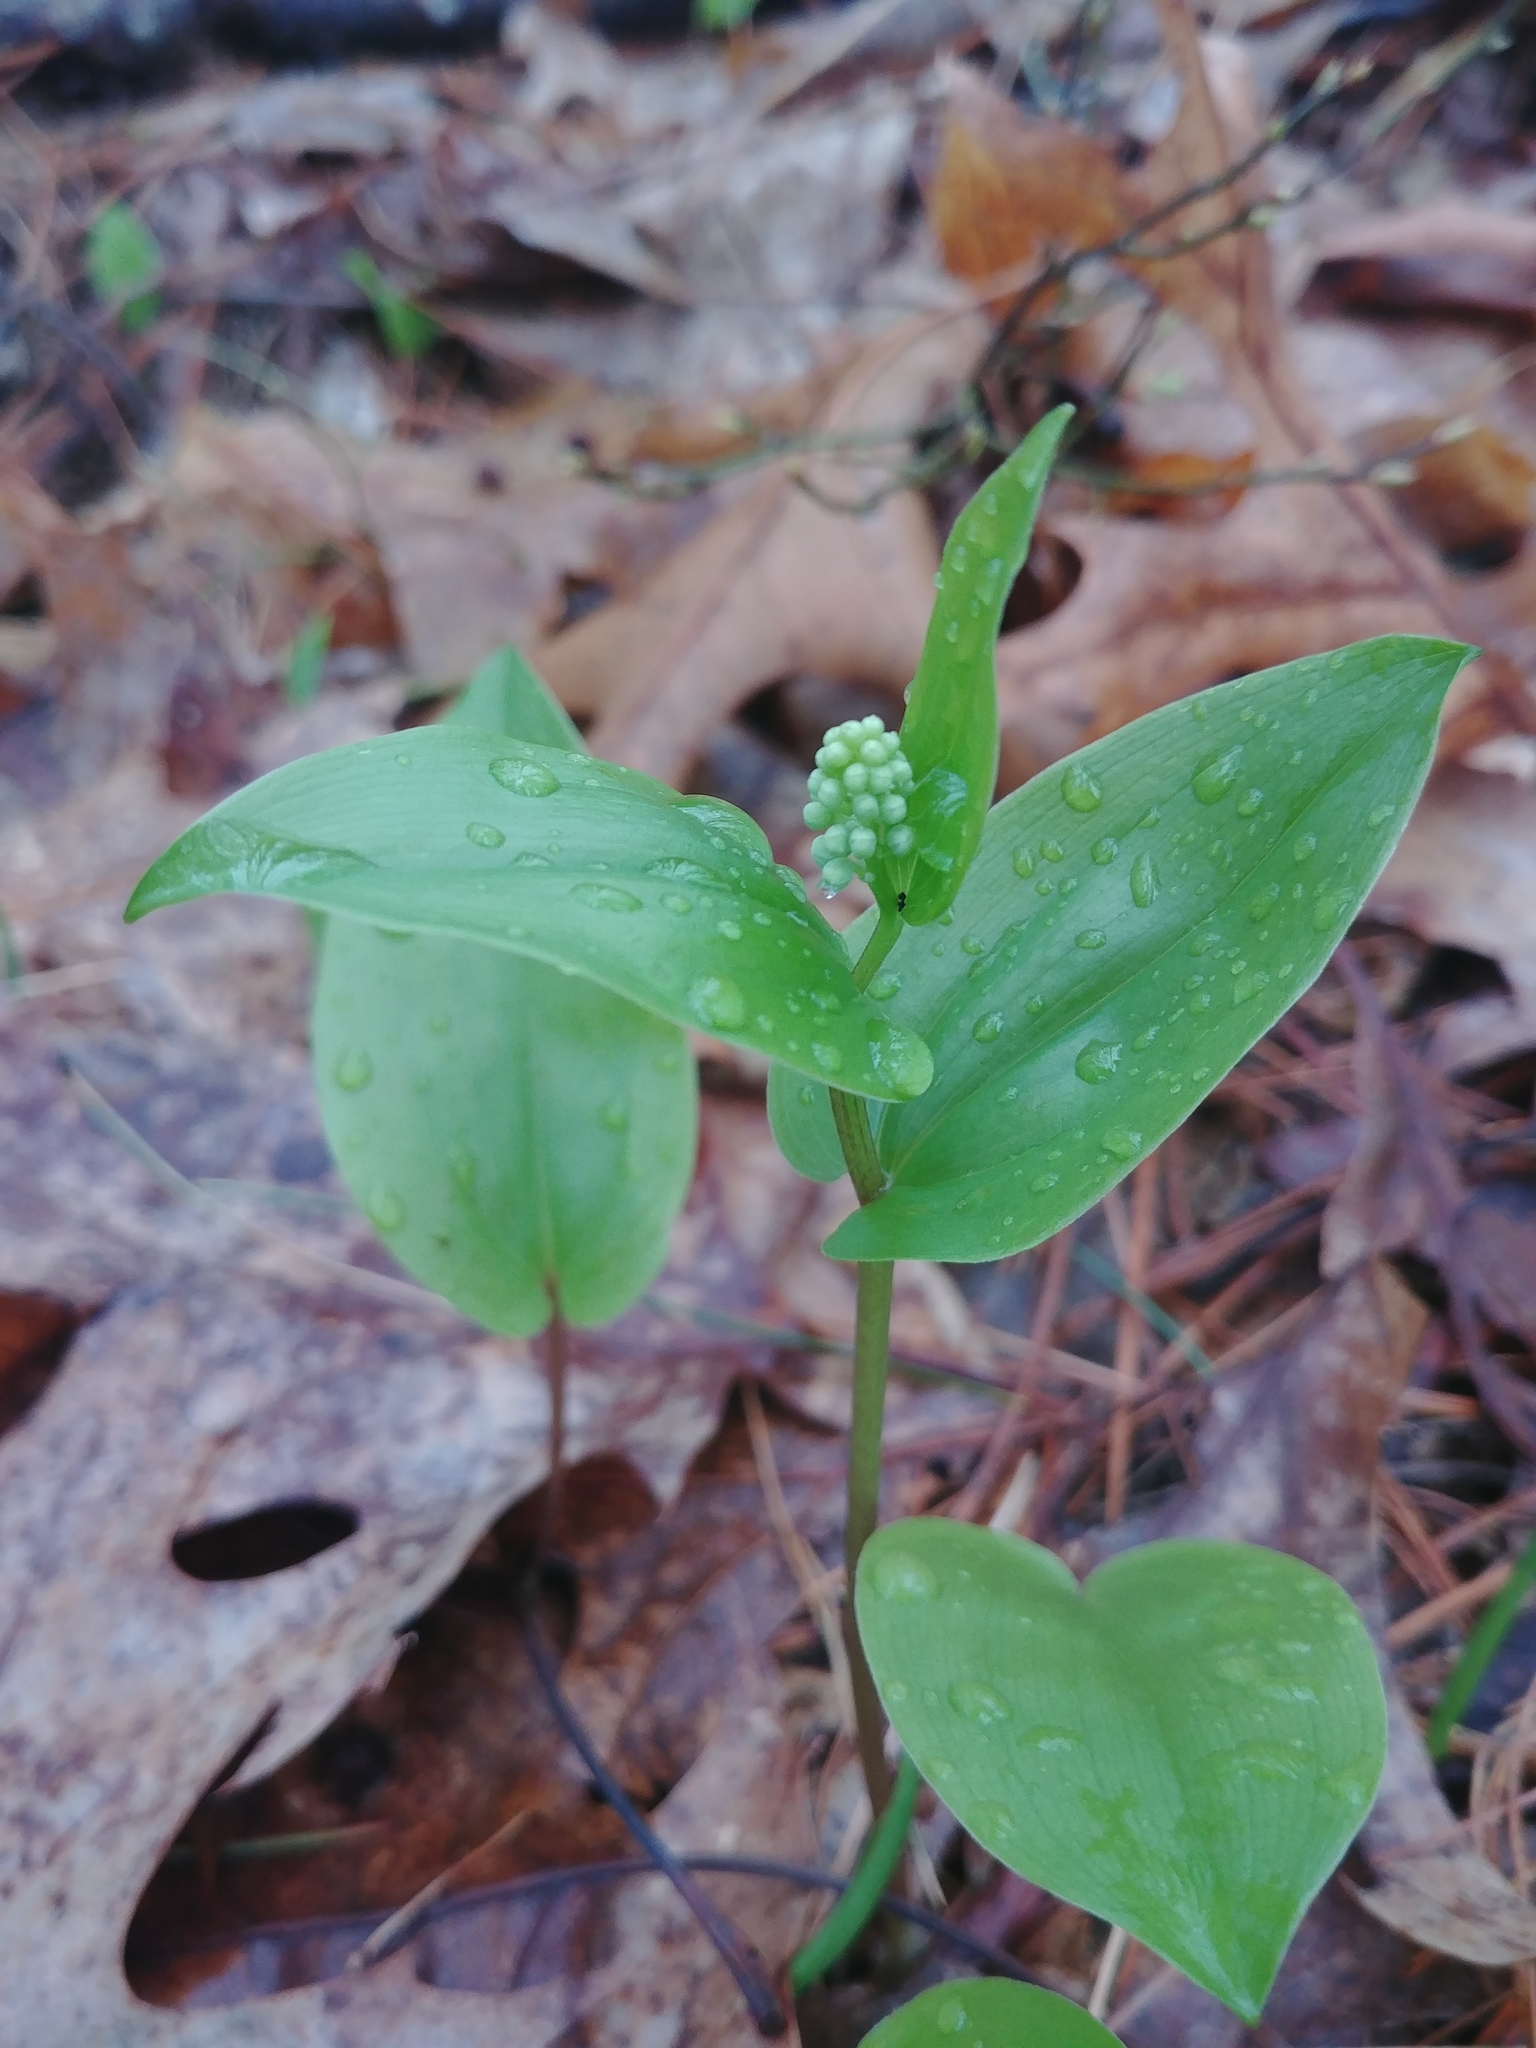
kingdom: Plantae
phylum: Tracheophyta
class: Liliopsida
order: Asparagales
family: Asparagaceae
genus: Maianthemum
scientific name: Maianthemum canadense
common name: False lily-of-the-valley
